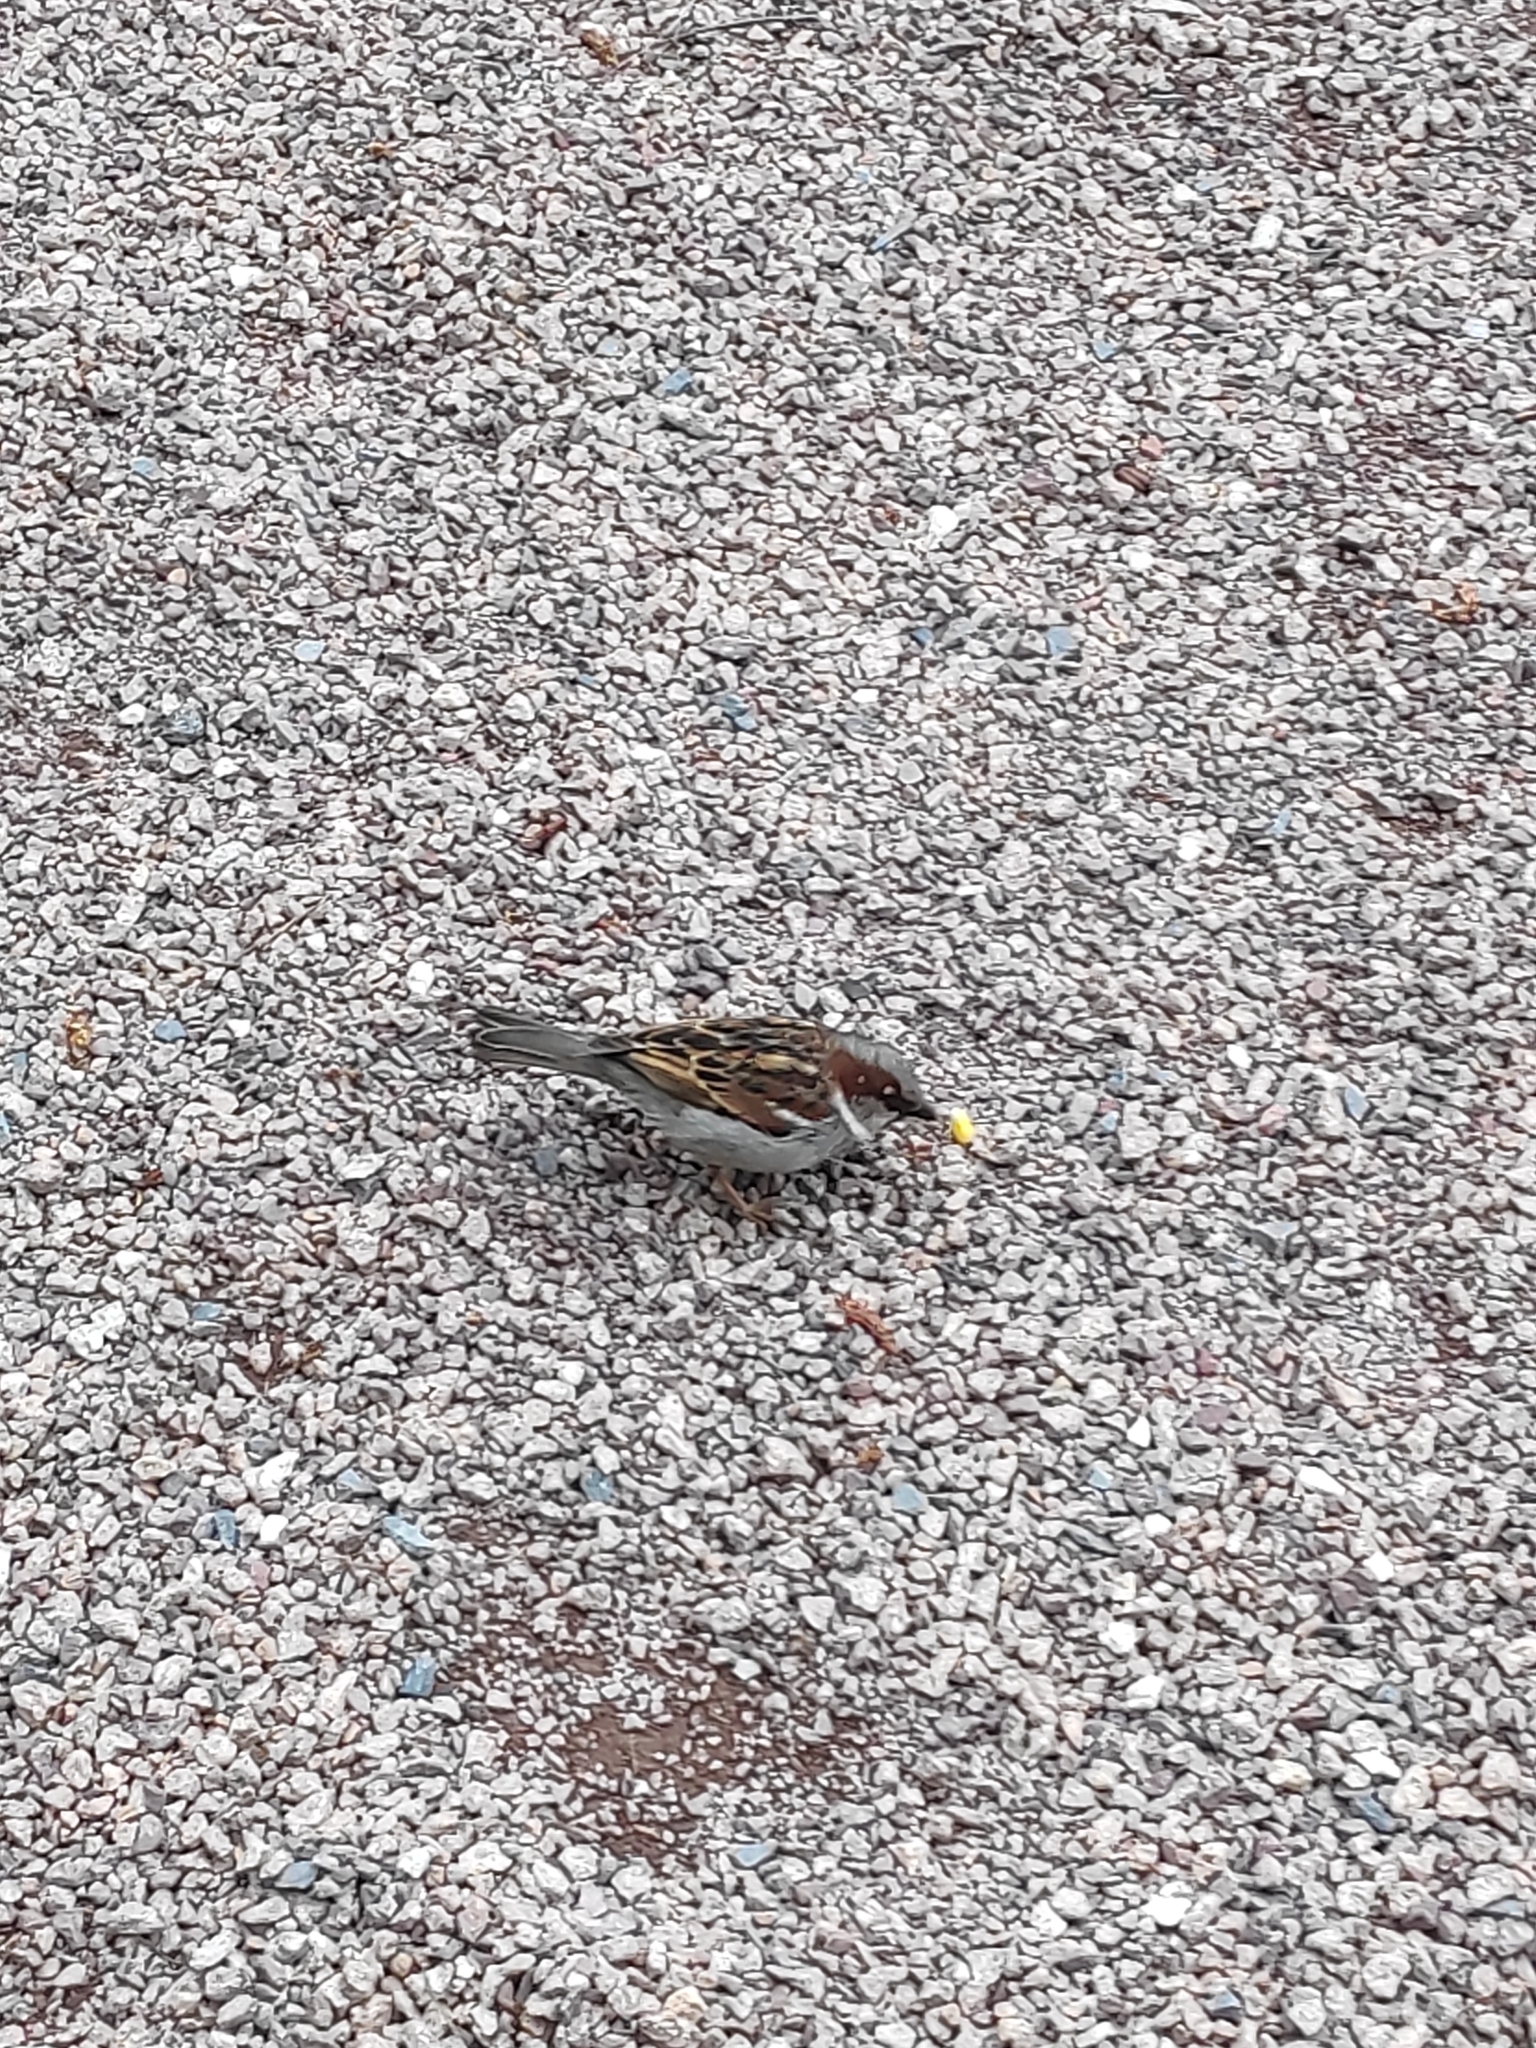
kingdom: Animalia
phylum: Chordata
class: Aves
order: Passeriformes
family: Passeridae
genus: Passer
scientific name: Passer domesticus
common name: House sparrow
